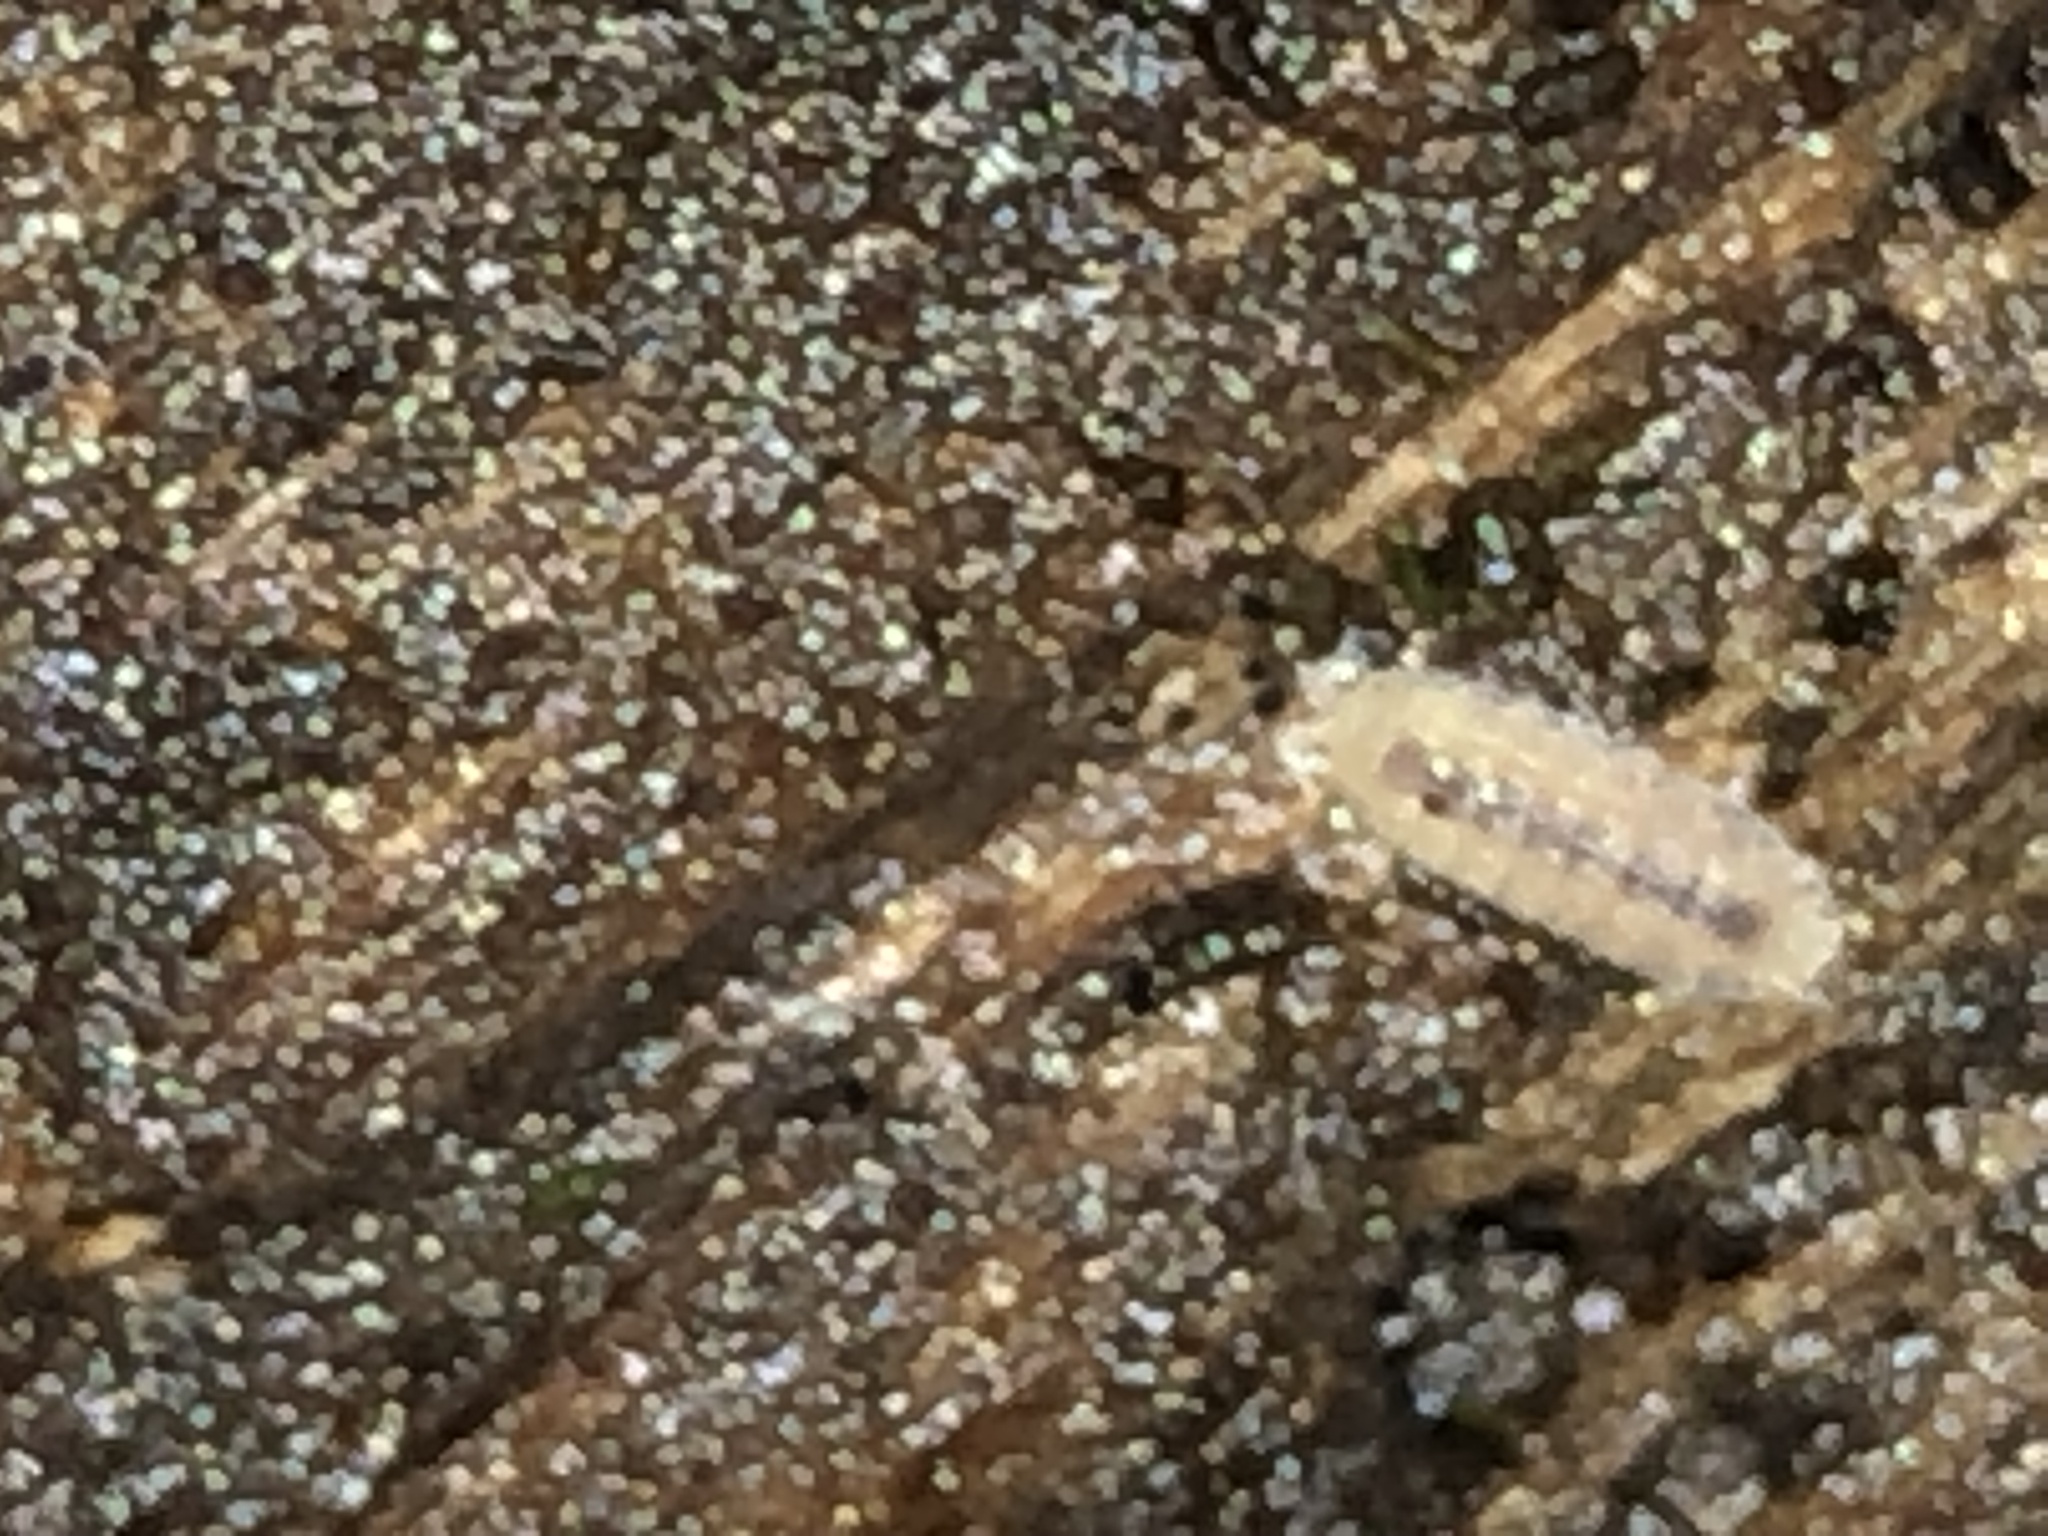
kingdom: Animalia
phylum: Arthropoda
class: Malacostraca
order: Isopoda
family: Trichoniscidae
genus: Haplophthalmus
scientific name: Haplophthalmus danicus
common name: Pillbug
